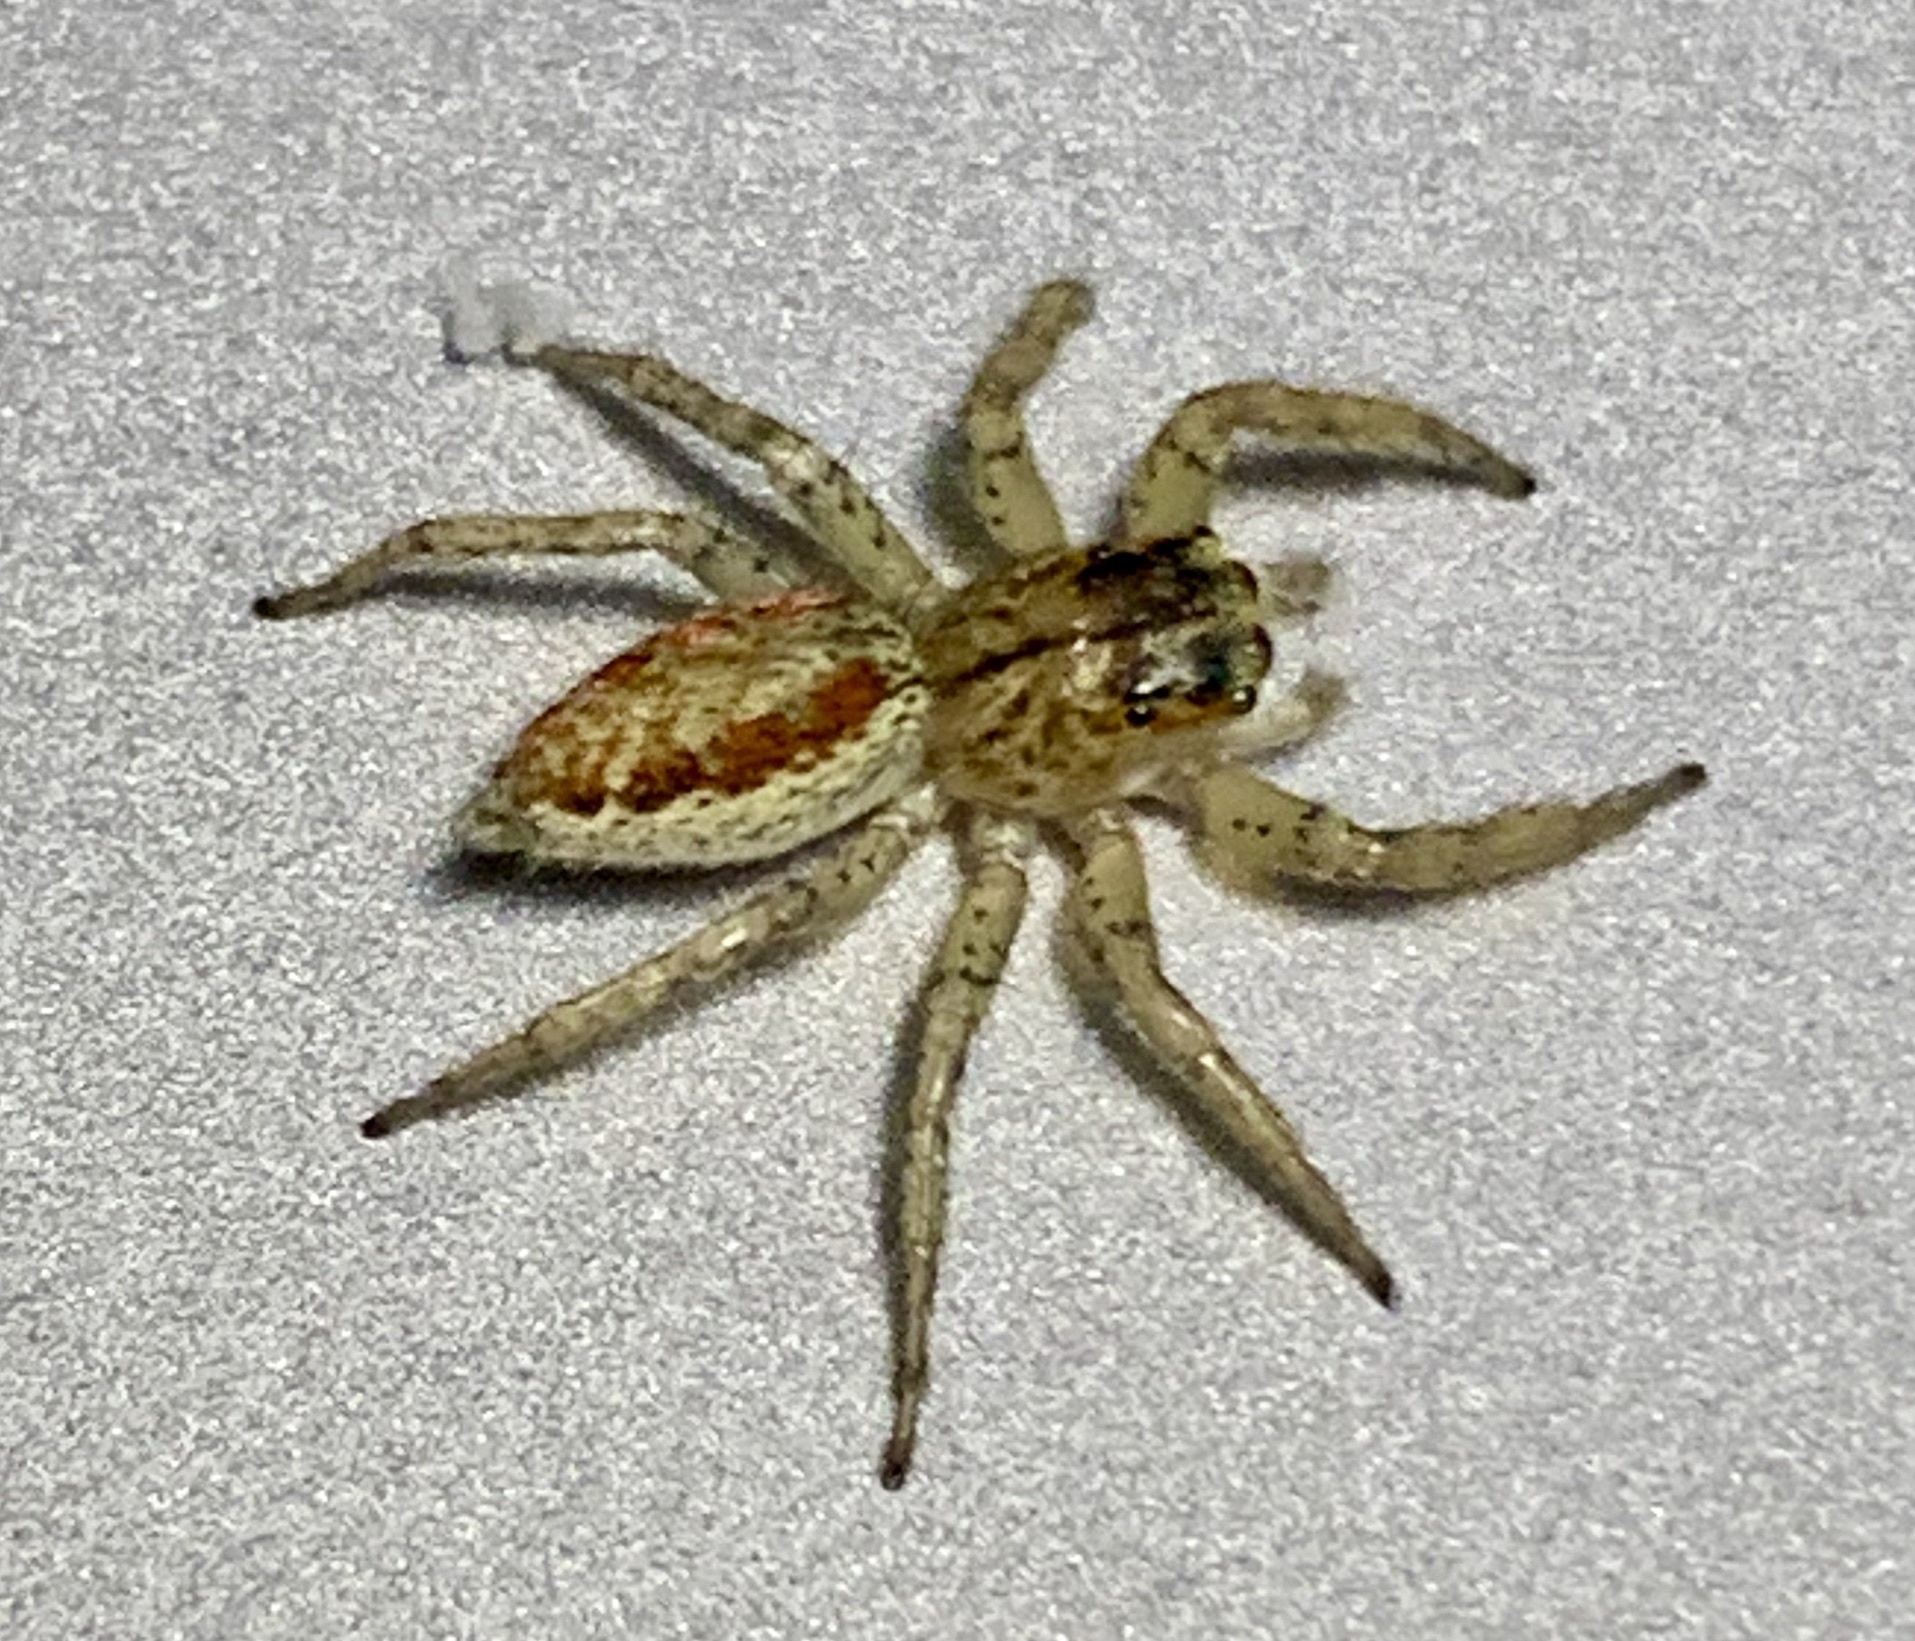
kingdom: Animalia
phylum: Arthropoda
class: Arachnida
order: Araneae
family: Salticidae
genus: Maevia
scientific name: Maevia inclemens
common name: Dimorphic jumper
